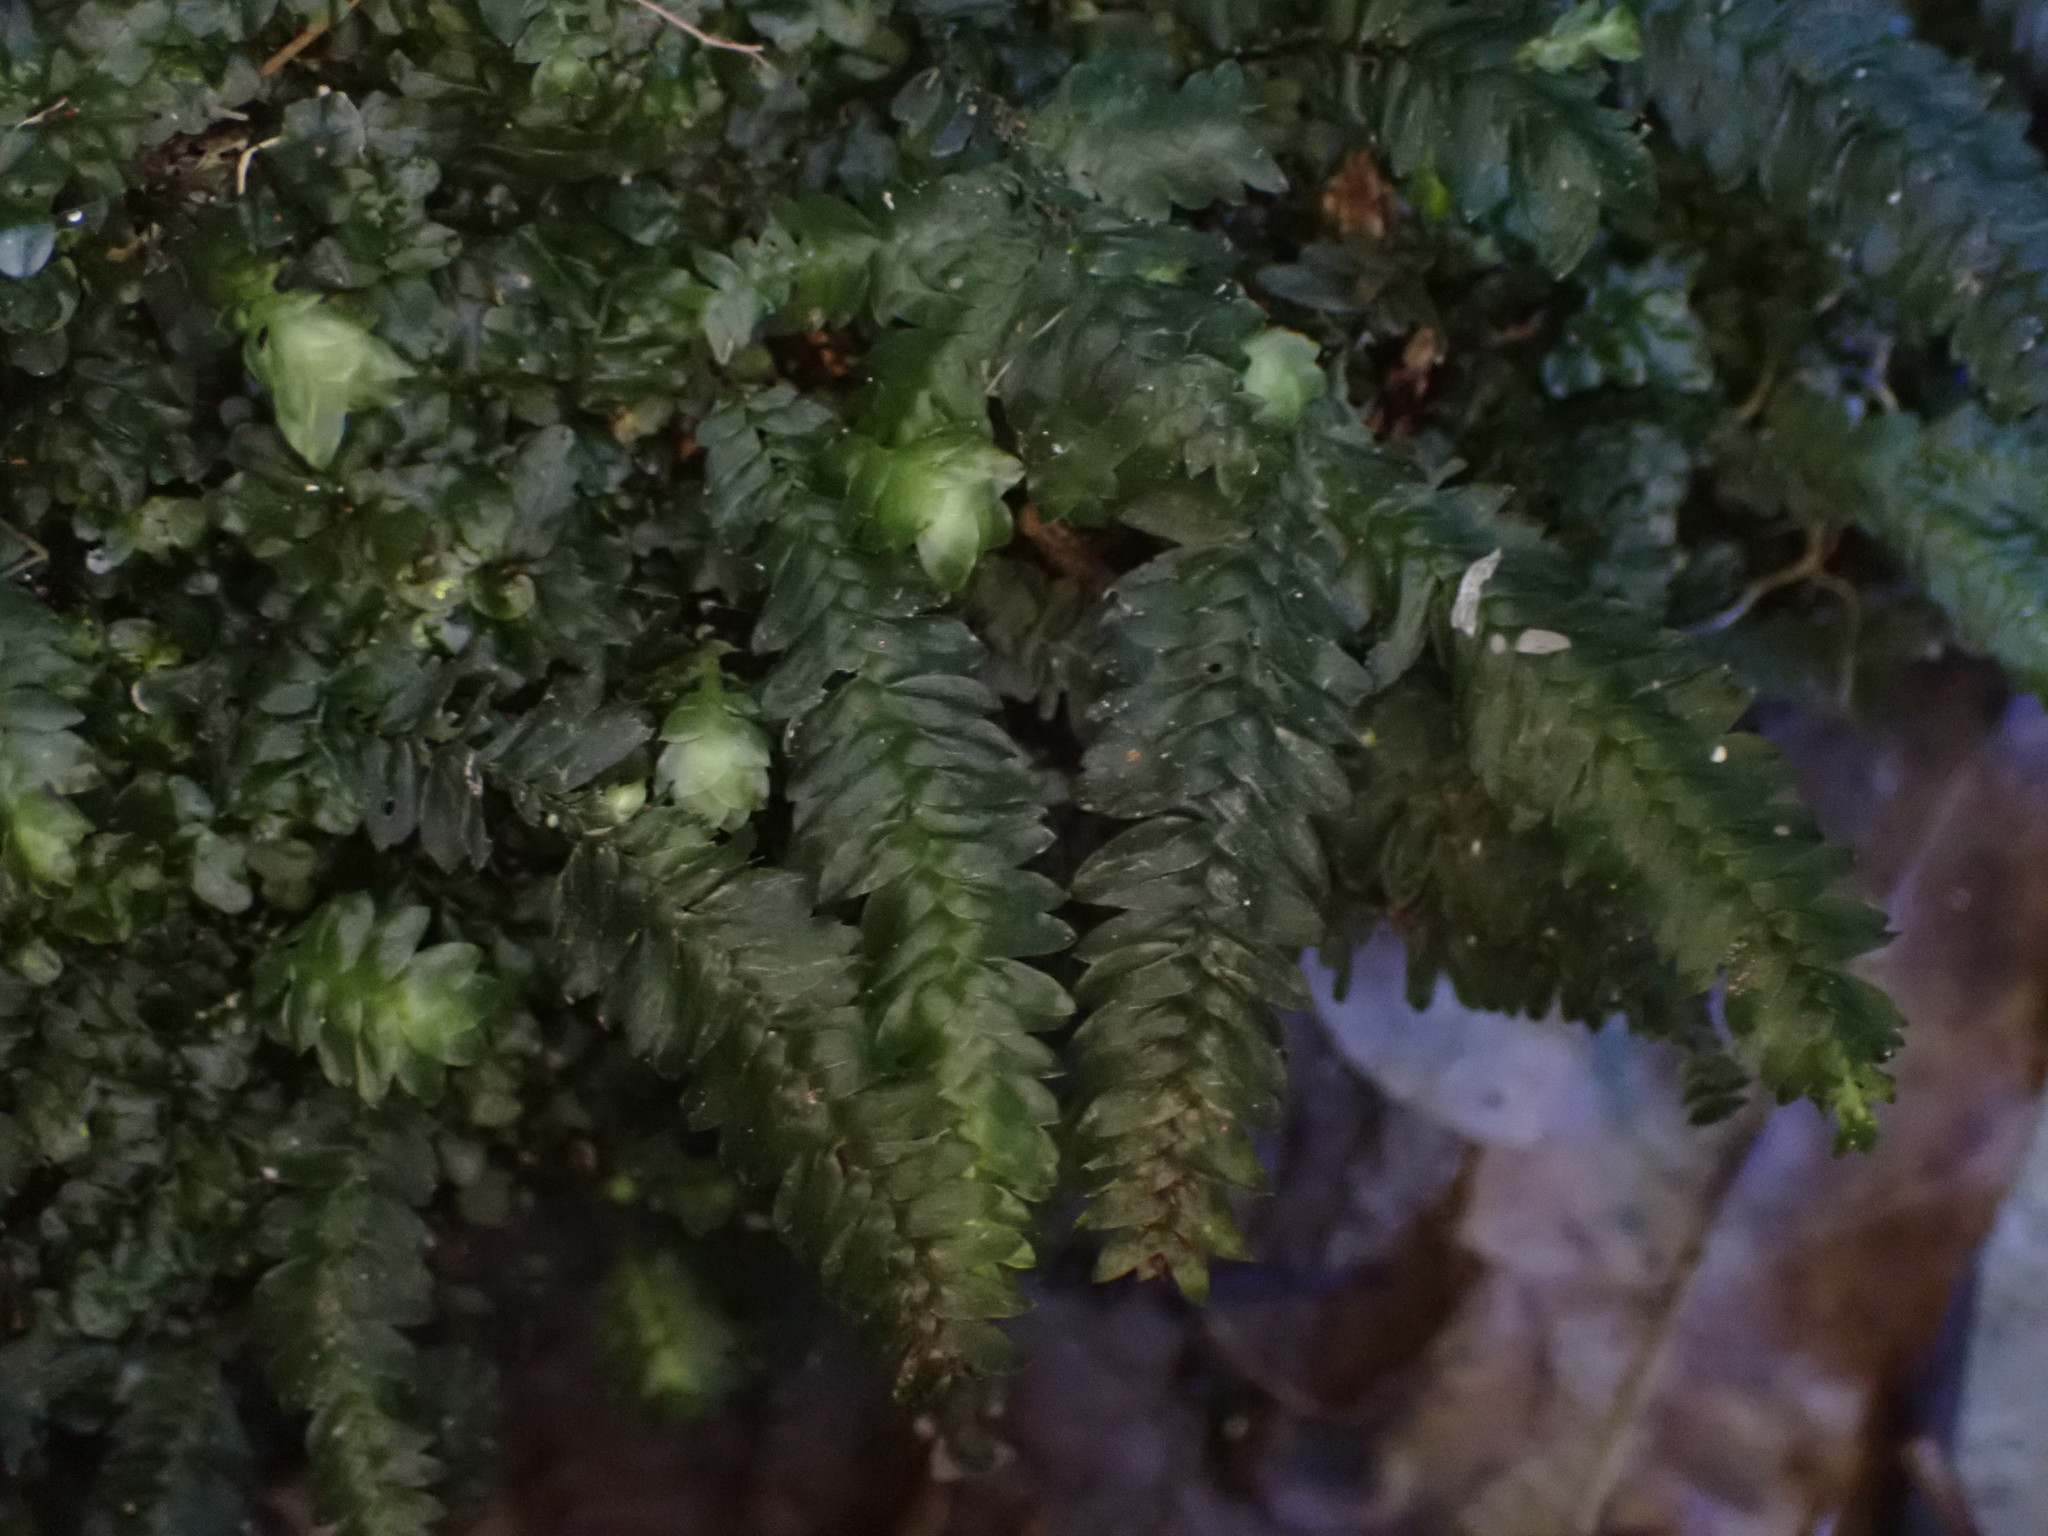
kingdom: Plantae
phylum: Bryophyta
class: Bryopsida
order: Hypopterygiales
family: Hypopterygiaceae
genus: Cyathophorum
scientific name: Cyathophorum bulbosum
